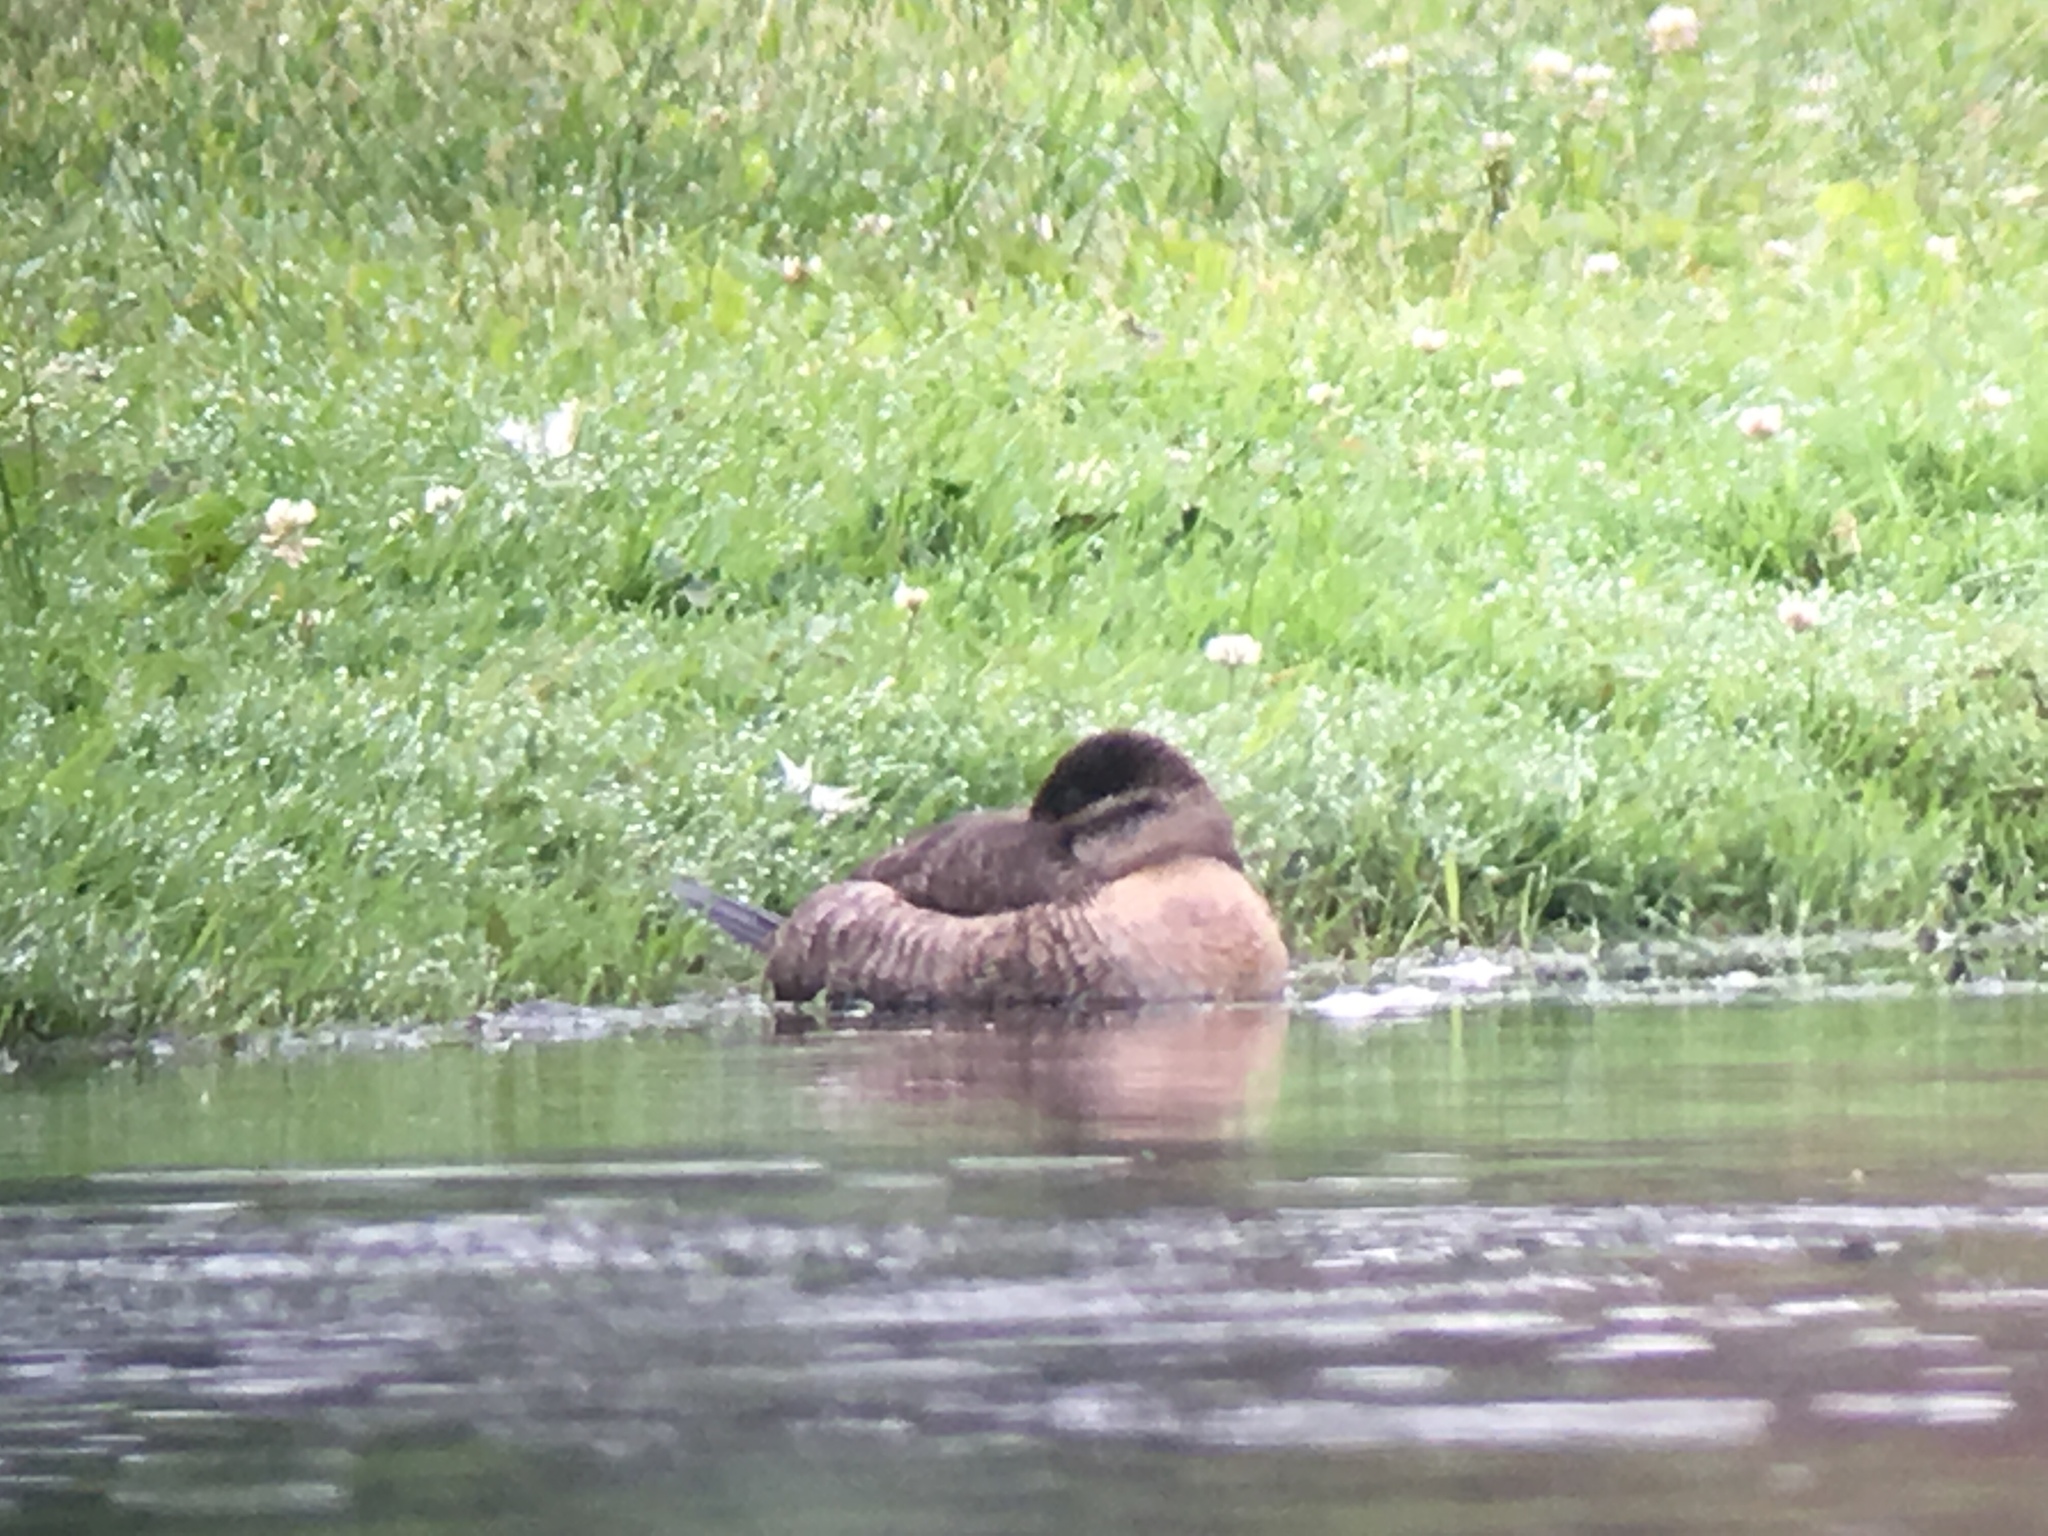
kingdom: Animalia
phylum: Chordata
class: Aves
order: Anseriformes
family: Anatidae
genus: Oxyura
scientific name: Oxyura jamaicensis
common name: Ruddy duck
